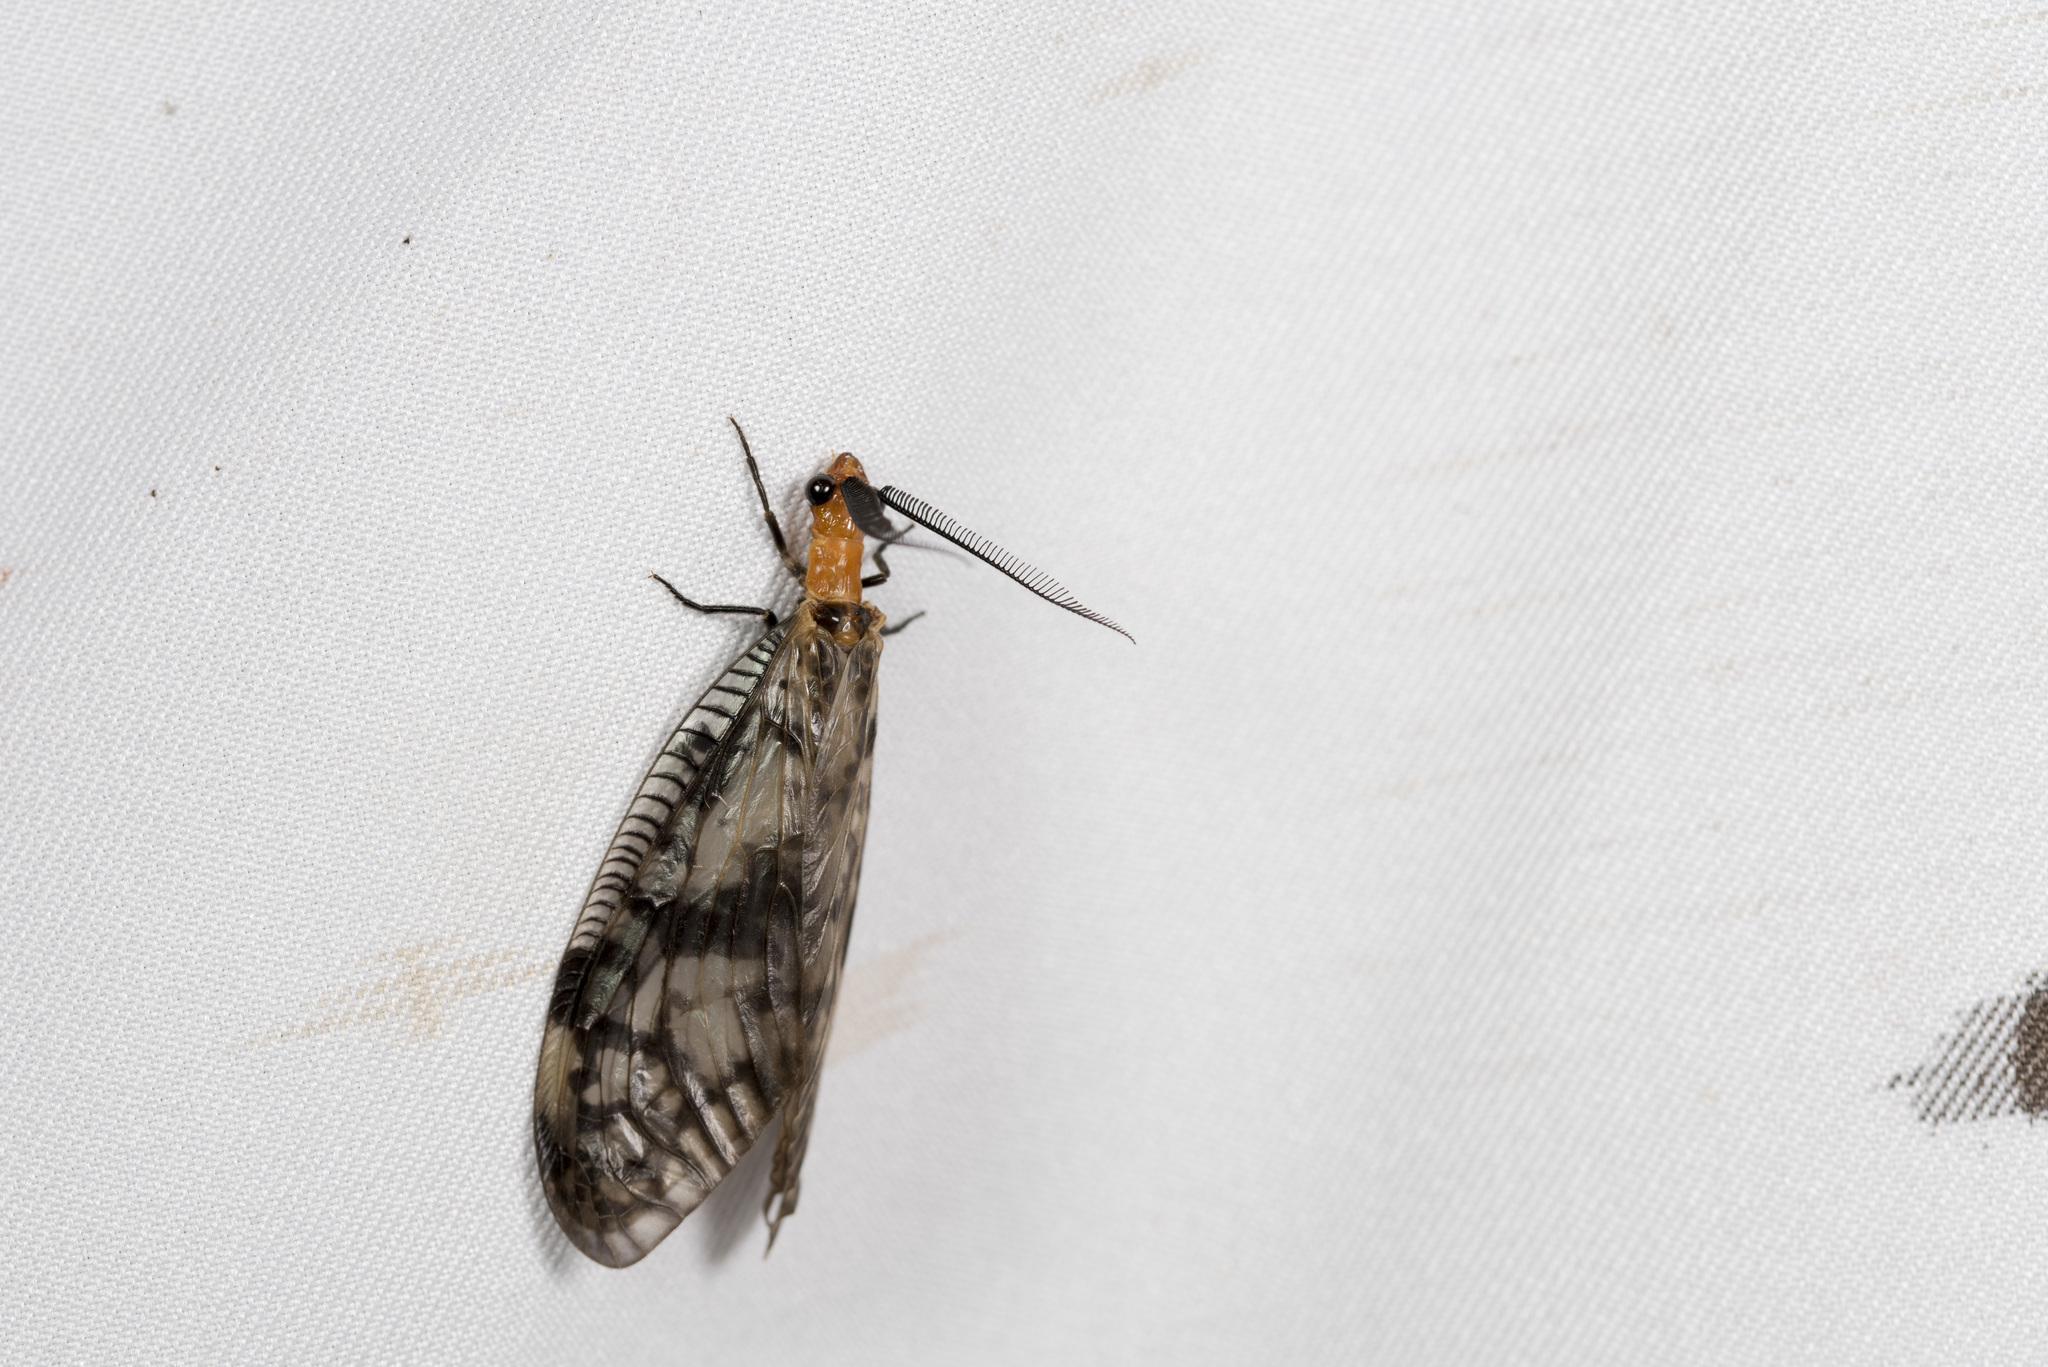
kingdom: Animalia
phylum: Arthropoda
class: Insecta
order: Megaloptera
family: Corydalidae
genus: Neochauliodes
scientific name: Neochauliodes formosanus
